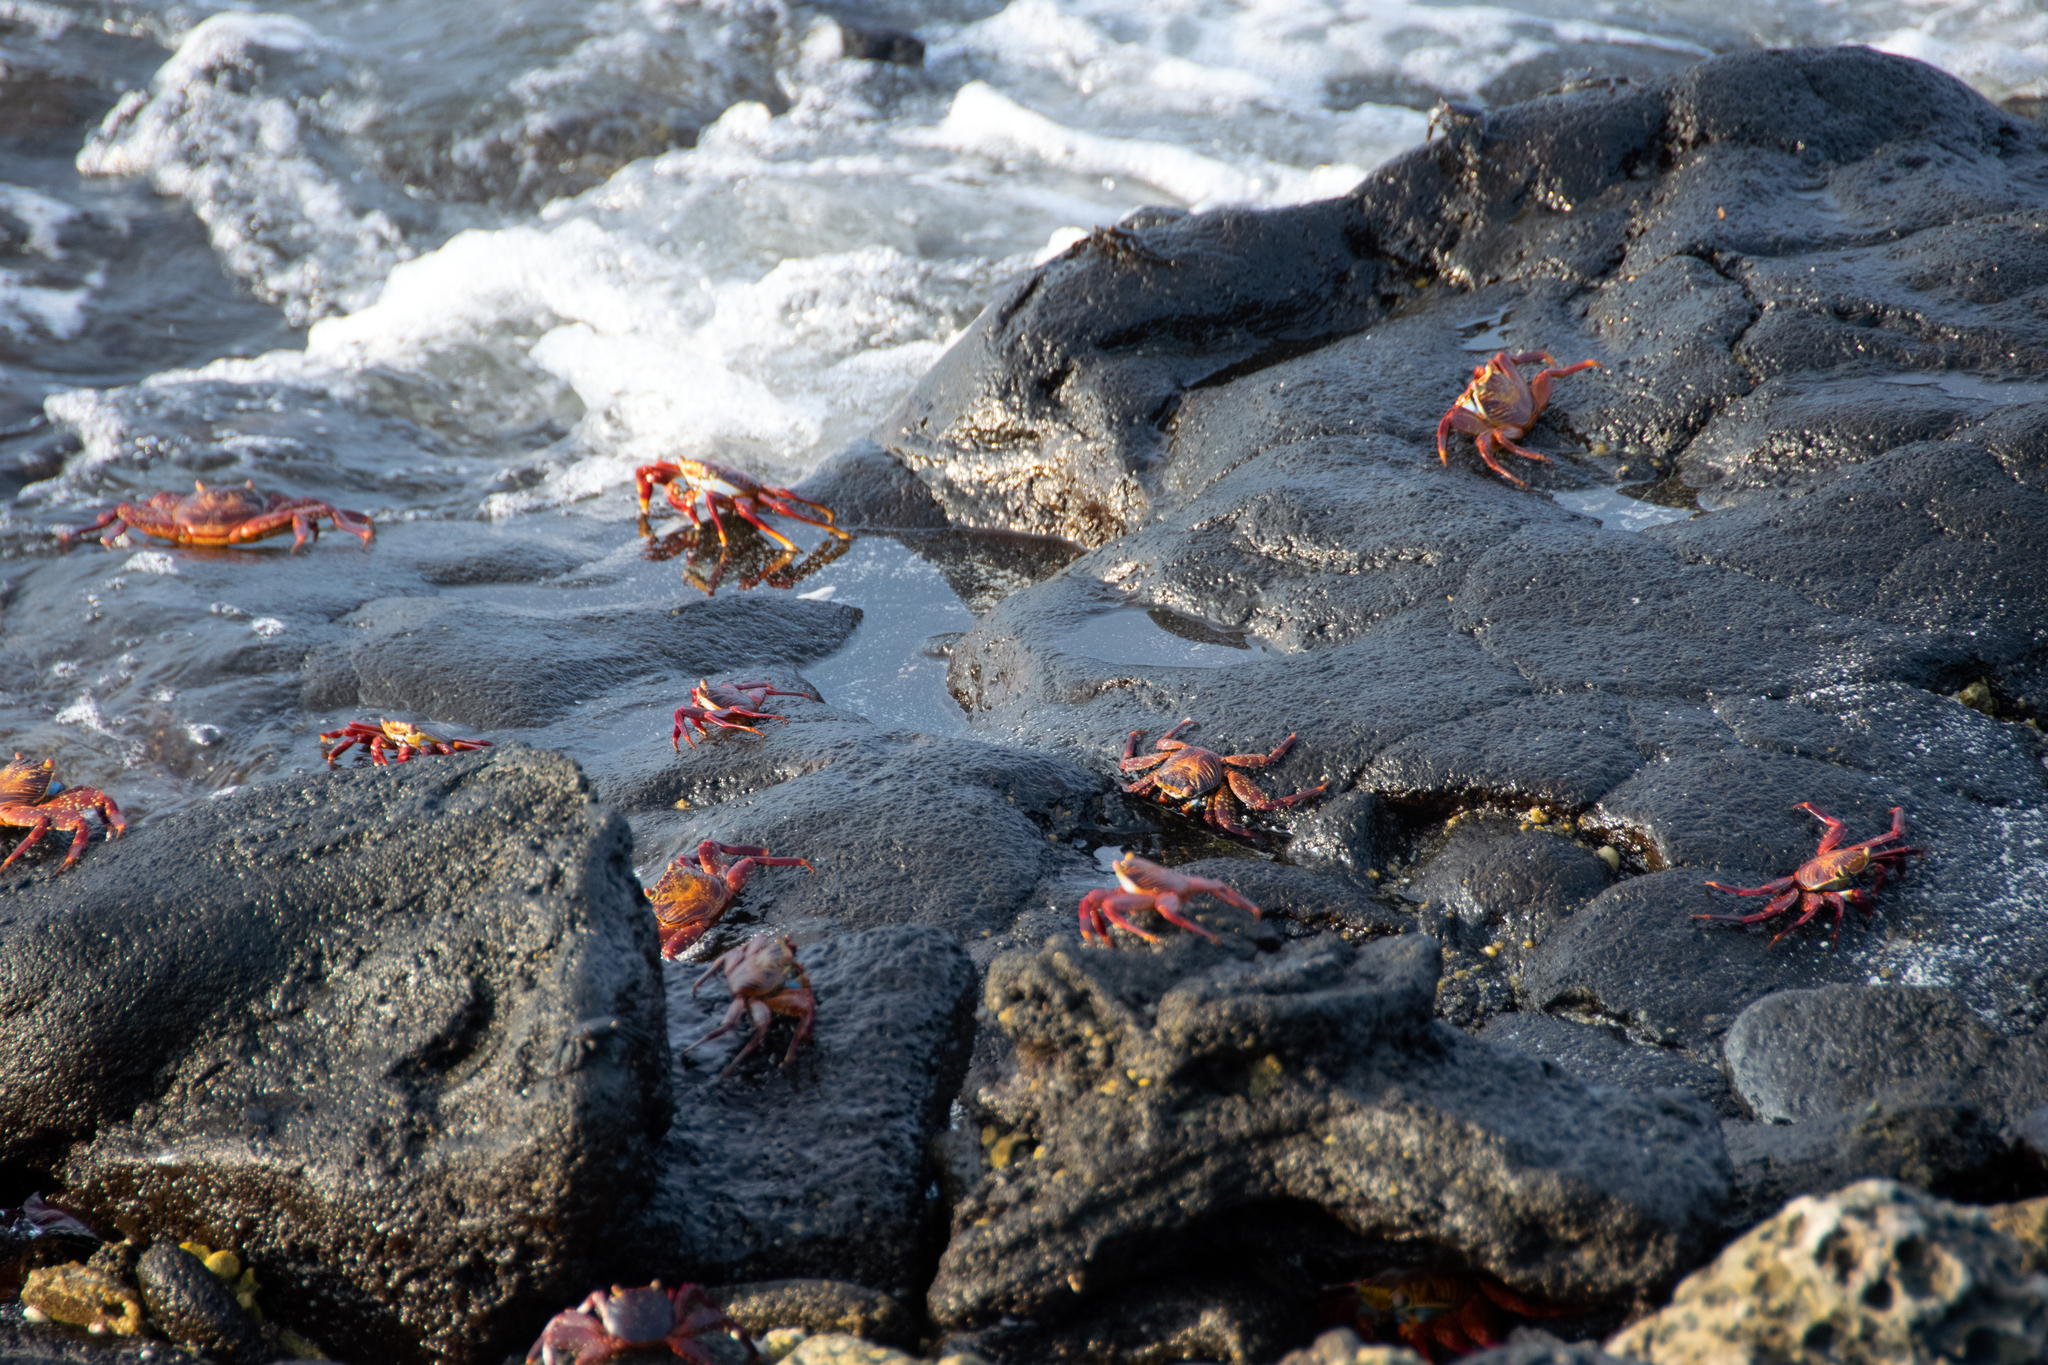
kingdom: Animalia
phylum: Arthropoda
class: Malacostraca
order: Decapoda
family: Grapsidae
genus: Grapsus
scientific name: Grapsus grapsus
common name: Sally lightfoot
